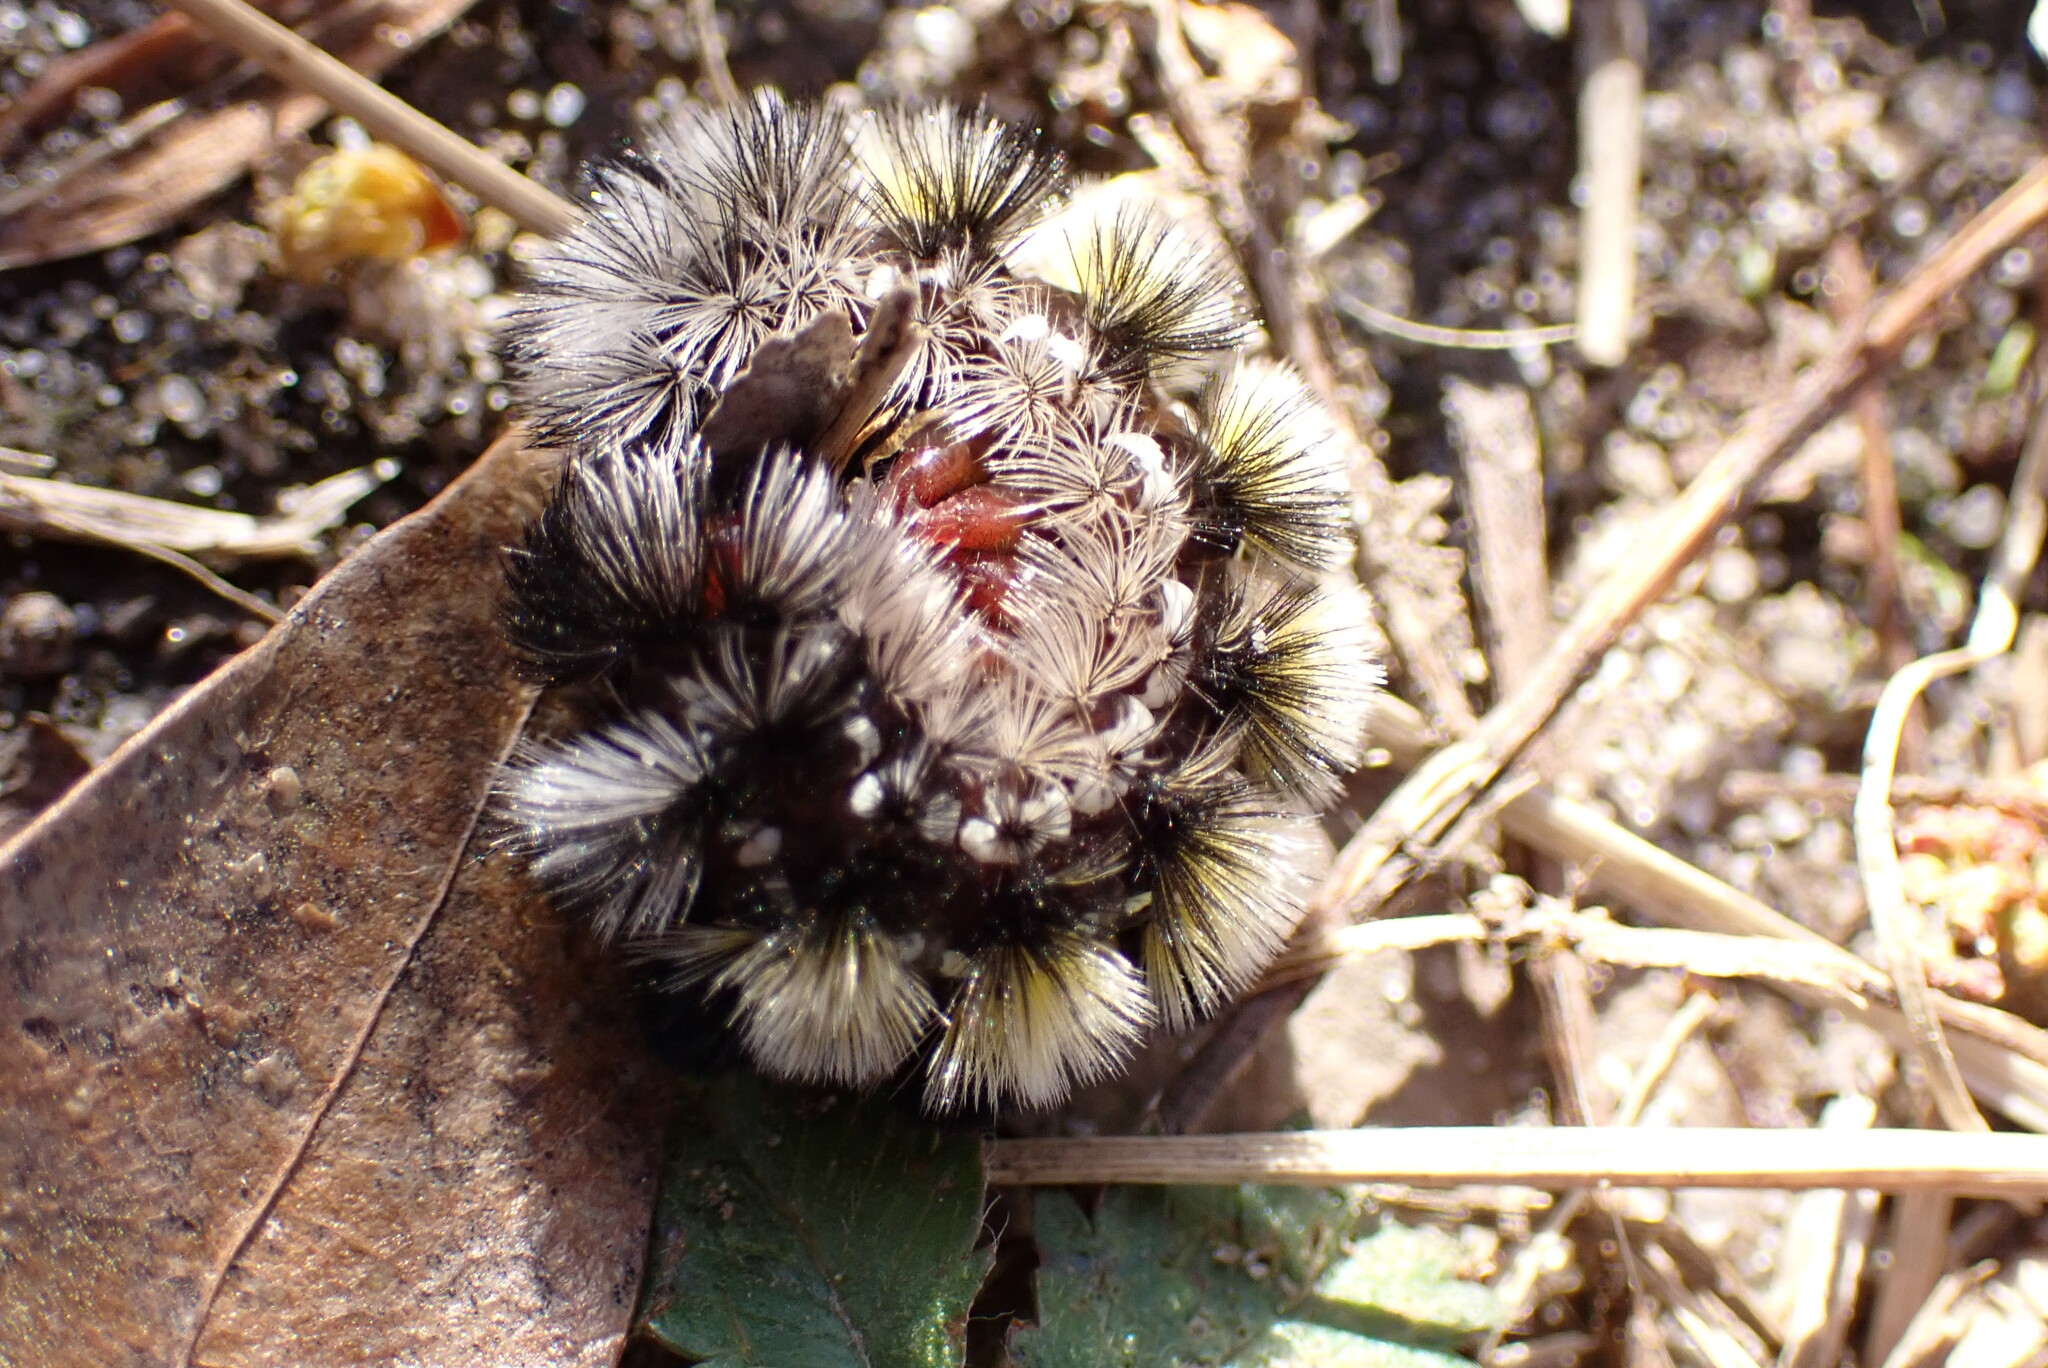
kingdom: Animalia
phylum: Arthropoda
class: Insecta
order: Lepidoptera
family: Erebidae
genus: Ctenucha
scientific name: Ctenucha virginica
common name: Virginia ctenucha moth
